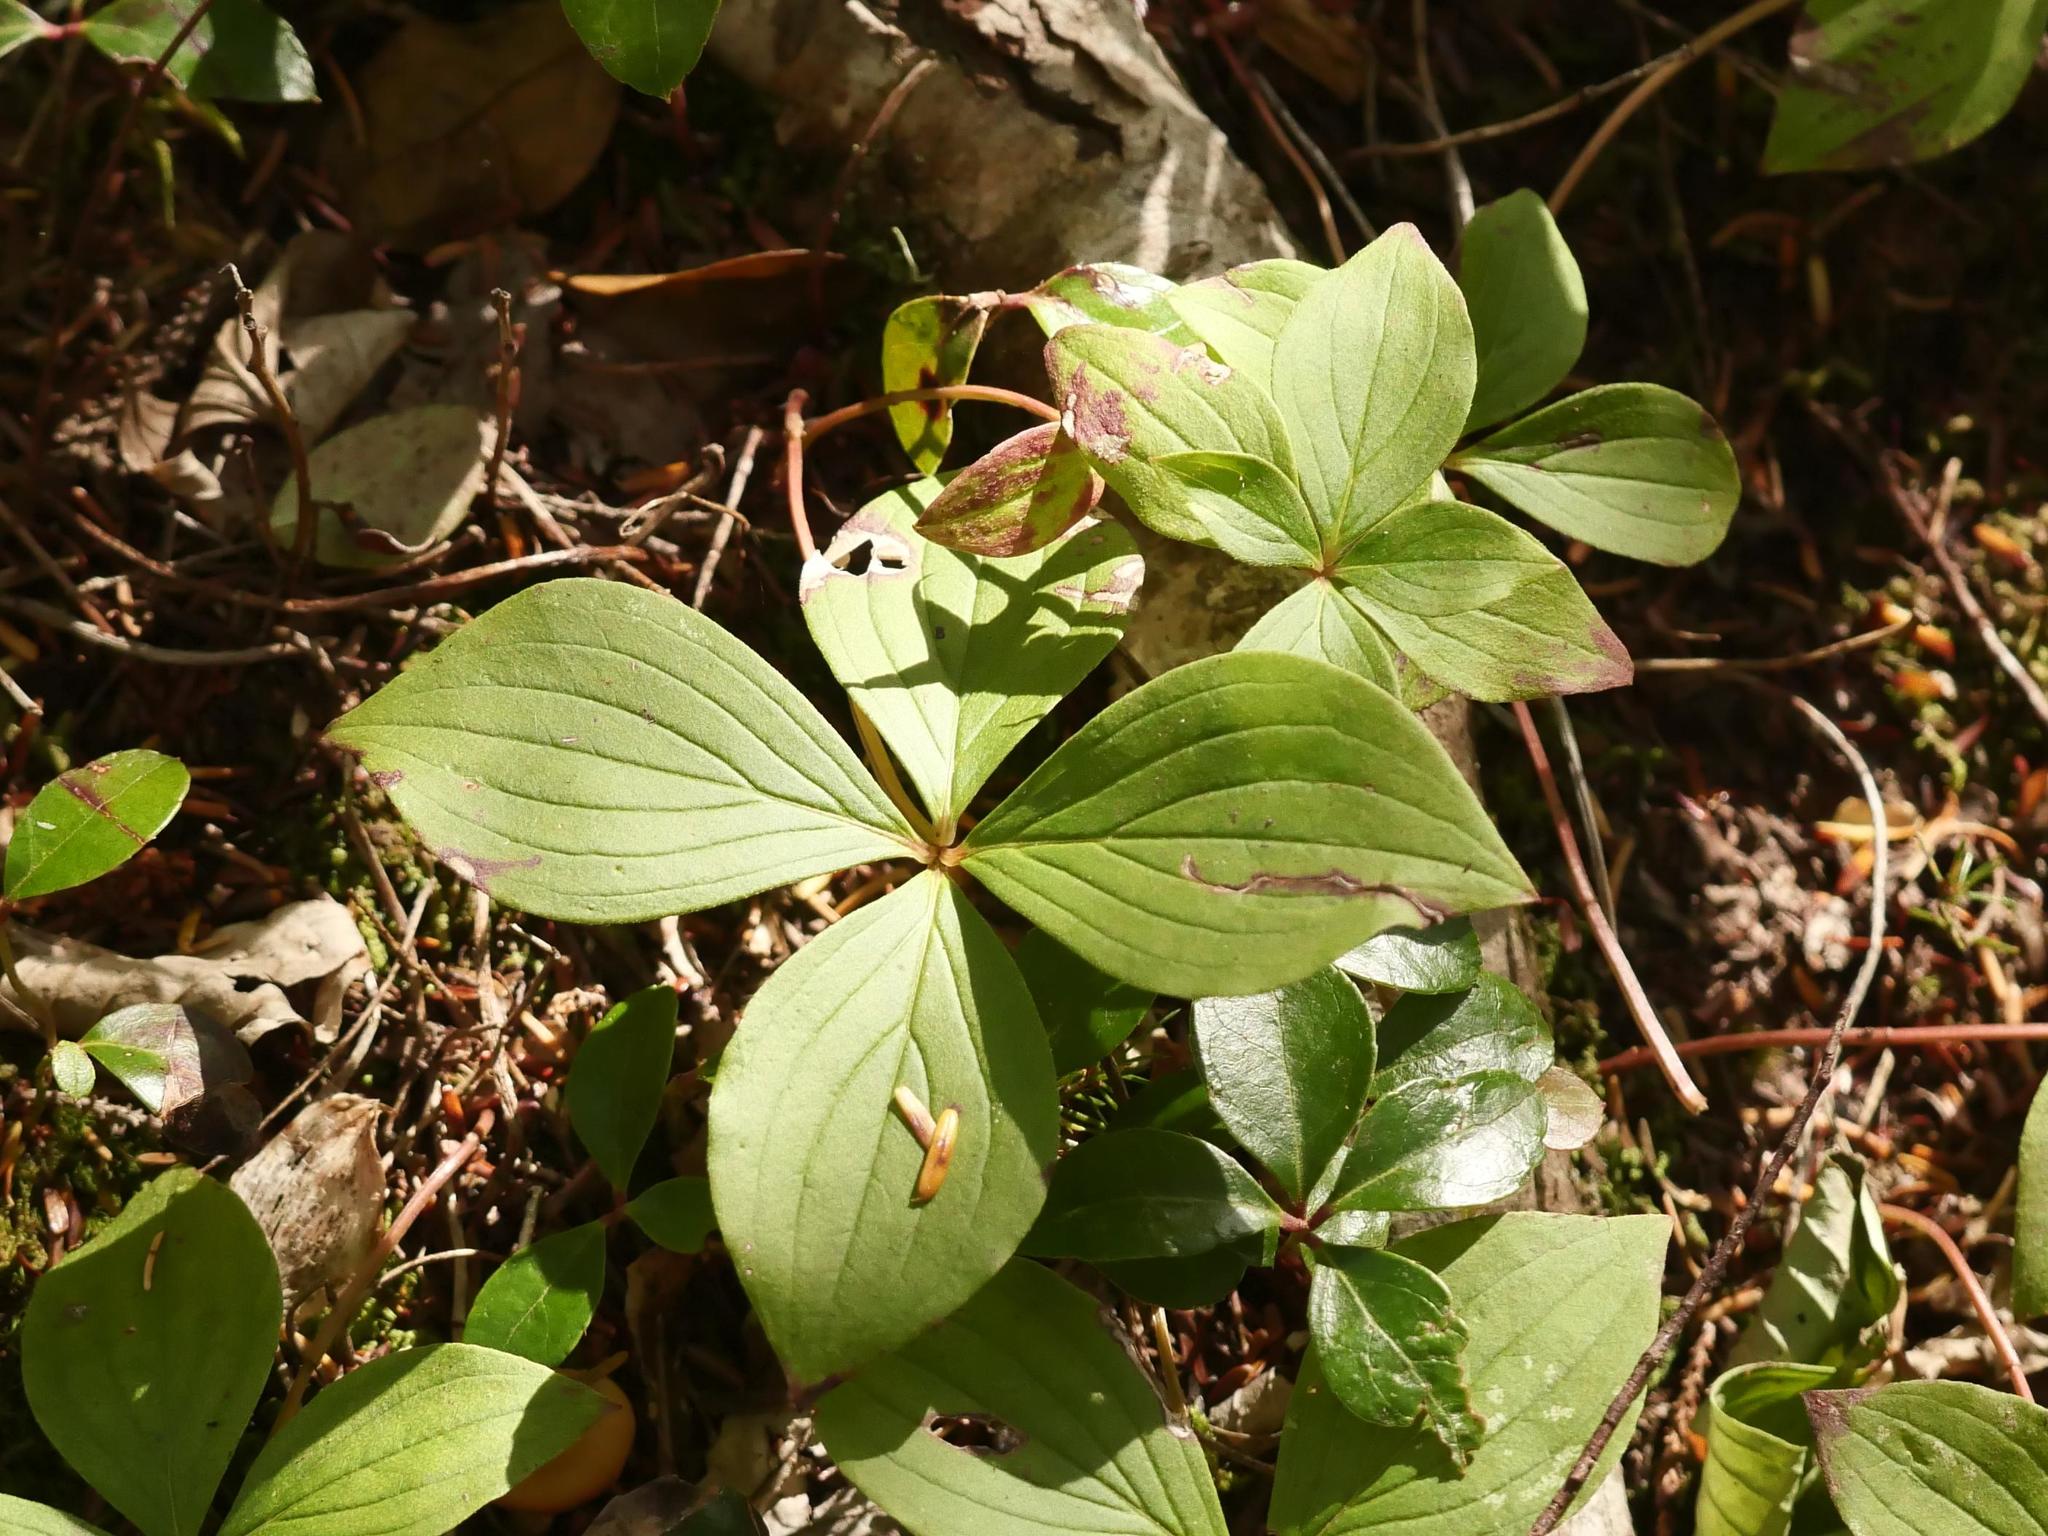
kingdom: Plantae
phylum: Tracheophyta
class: Magnoliopsida
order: Cornales
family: Cornaceae
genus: Cornus
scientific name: Cornus canadensis
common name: Creeping dogwood
